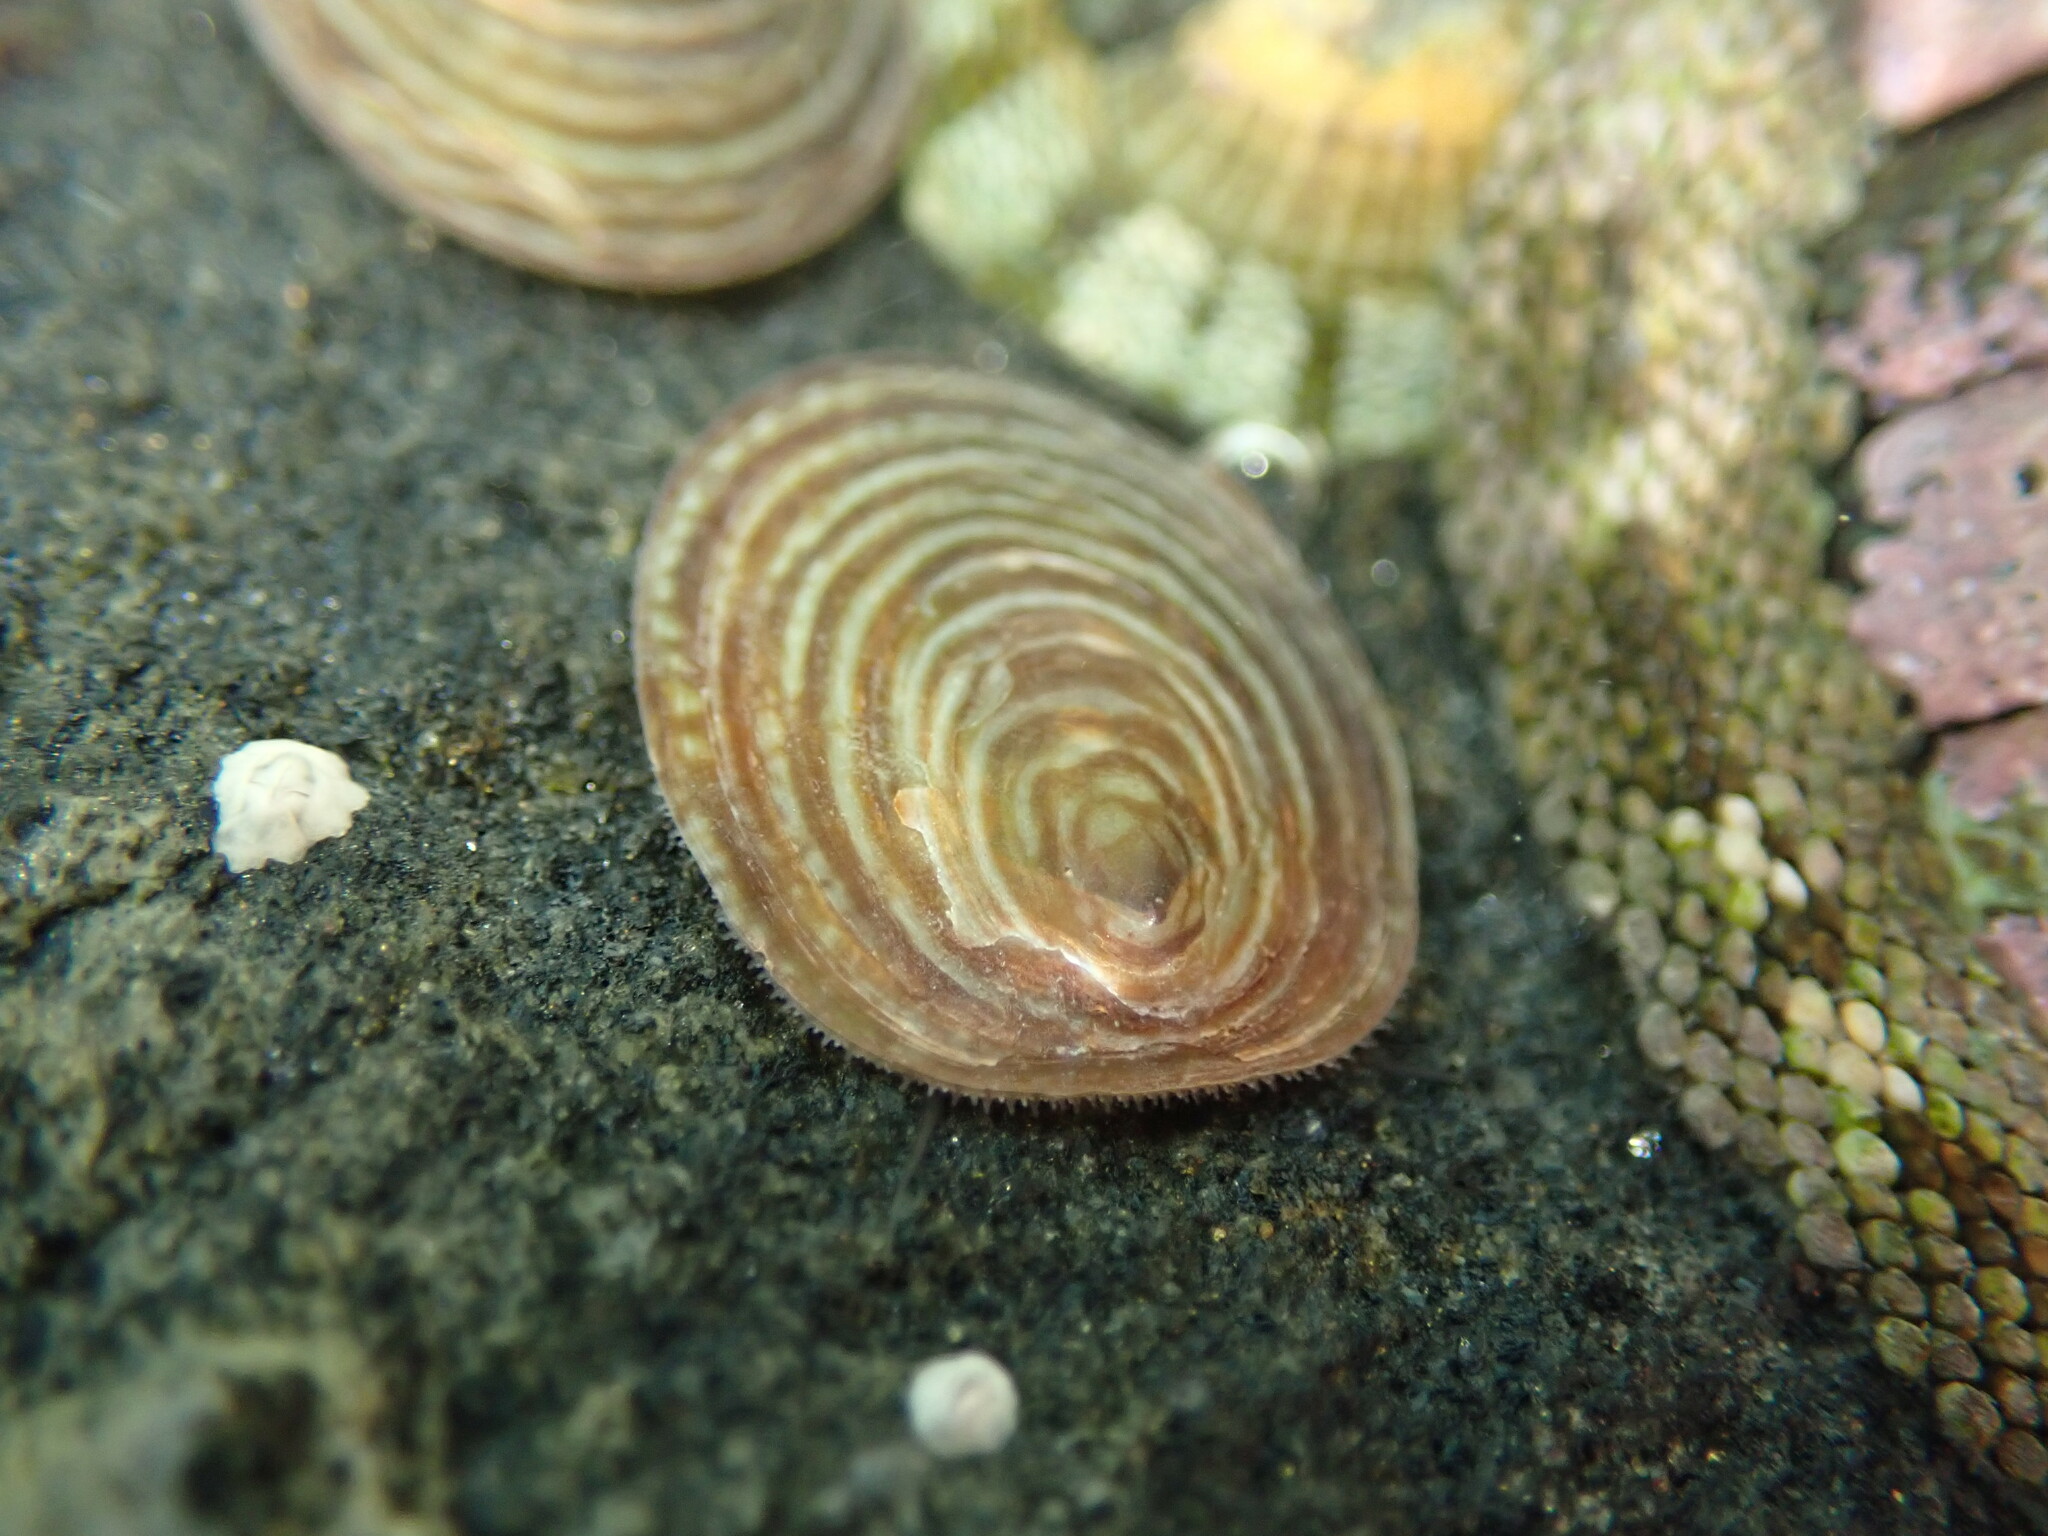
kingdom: Animalia
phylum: Mollusca
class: Gastropoda
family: Lottiidae
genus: Atalacmea
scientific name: Atalacmea fragilis
